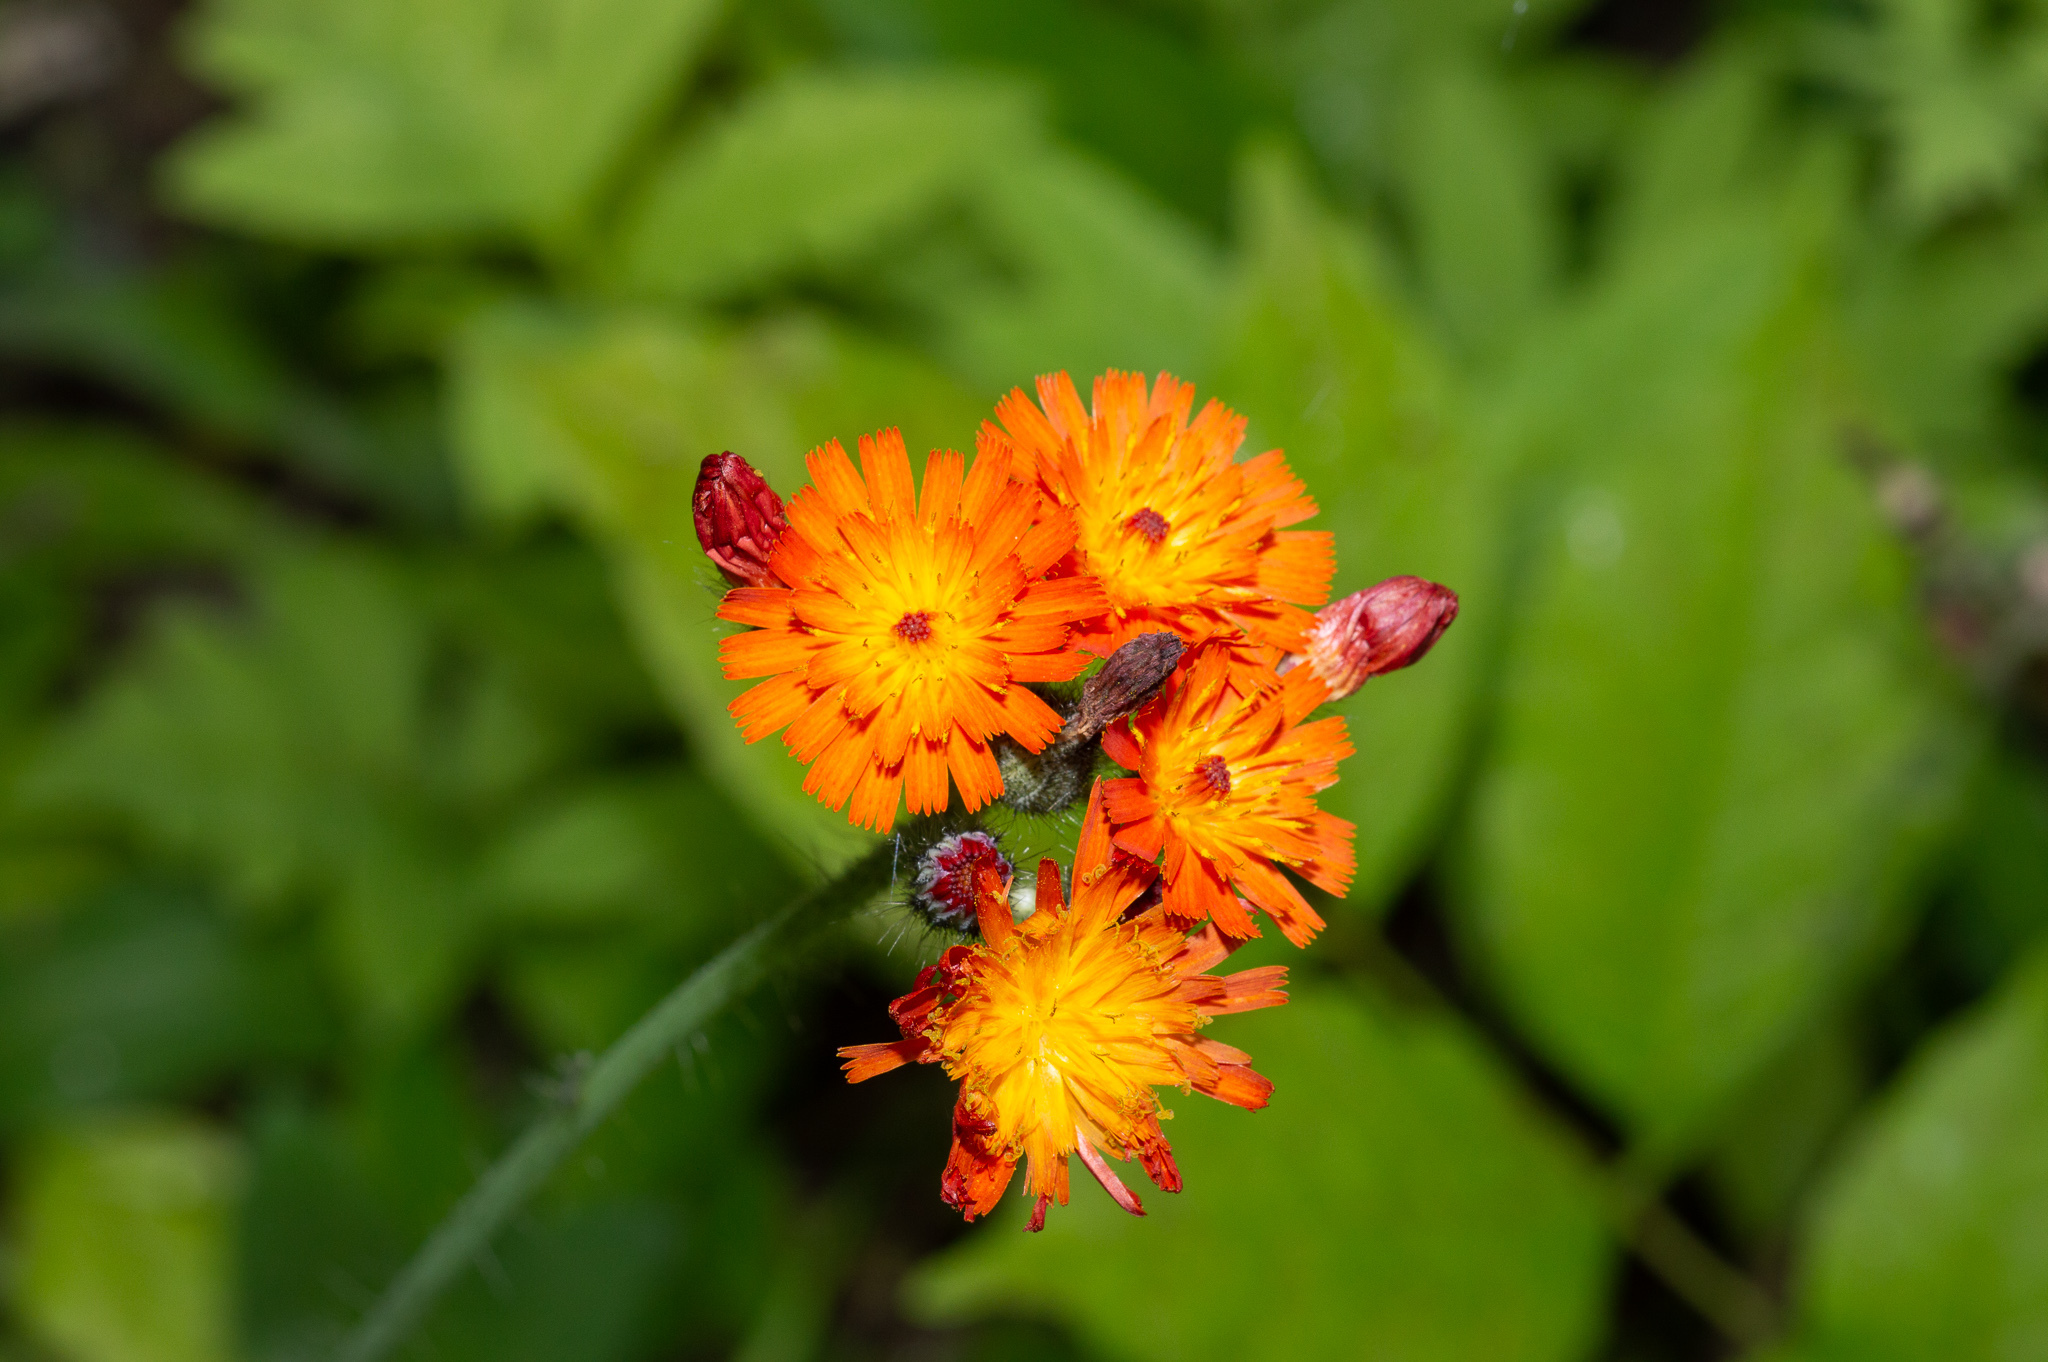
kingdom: Plantae
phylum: Tracheophyta
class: Magnoliopsida
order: Asterales
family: Asteraceae
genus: Pilosella
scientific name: Pilosella aurantiaca
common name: Fox-and-cubs
